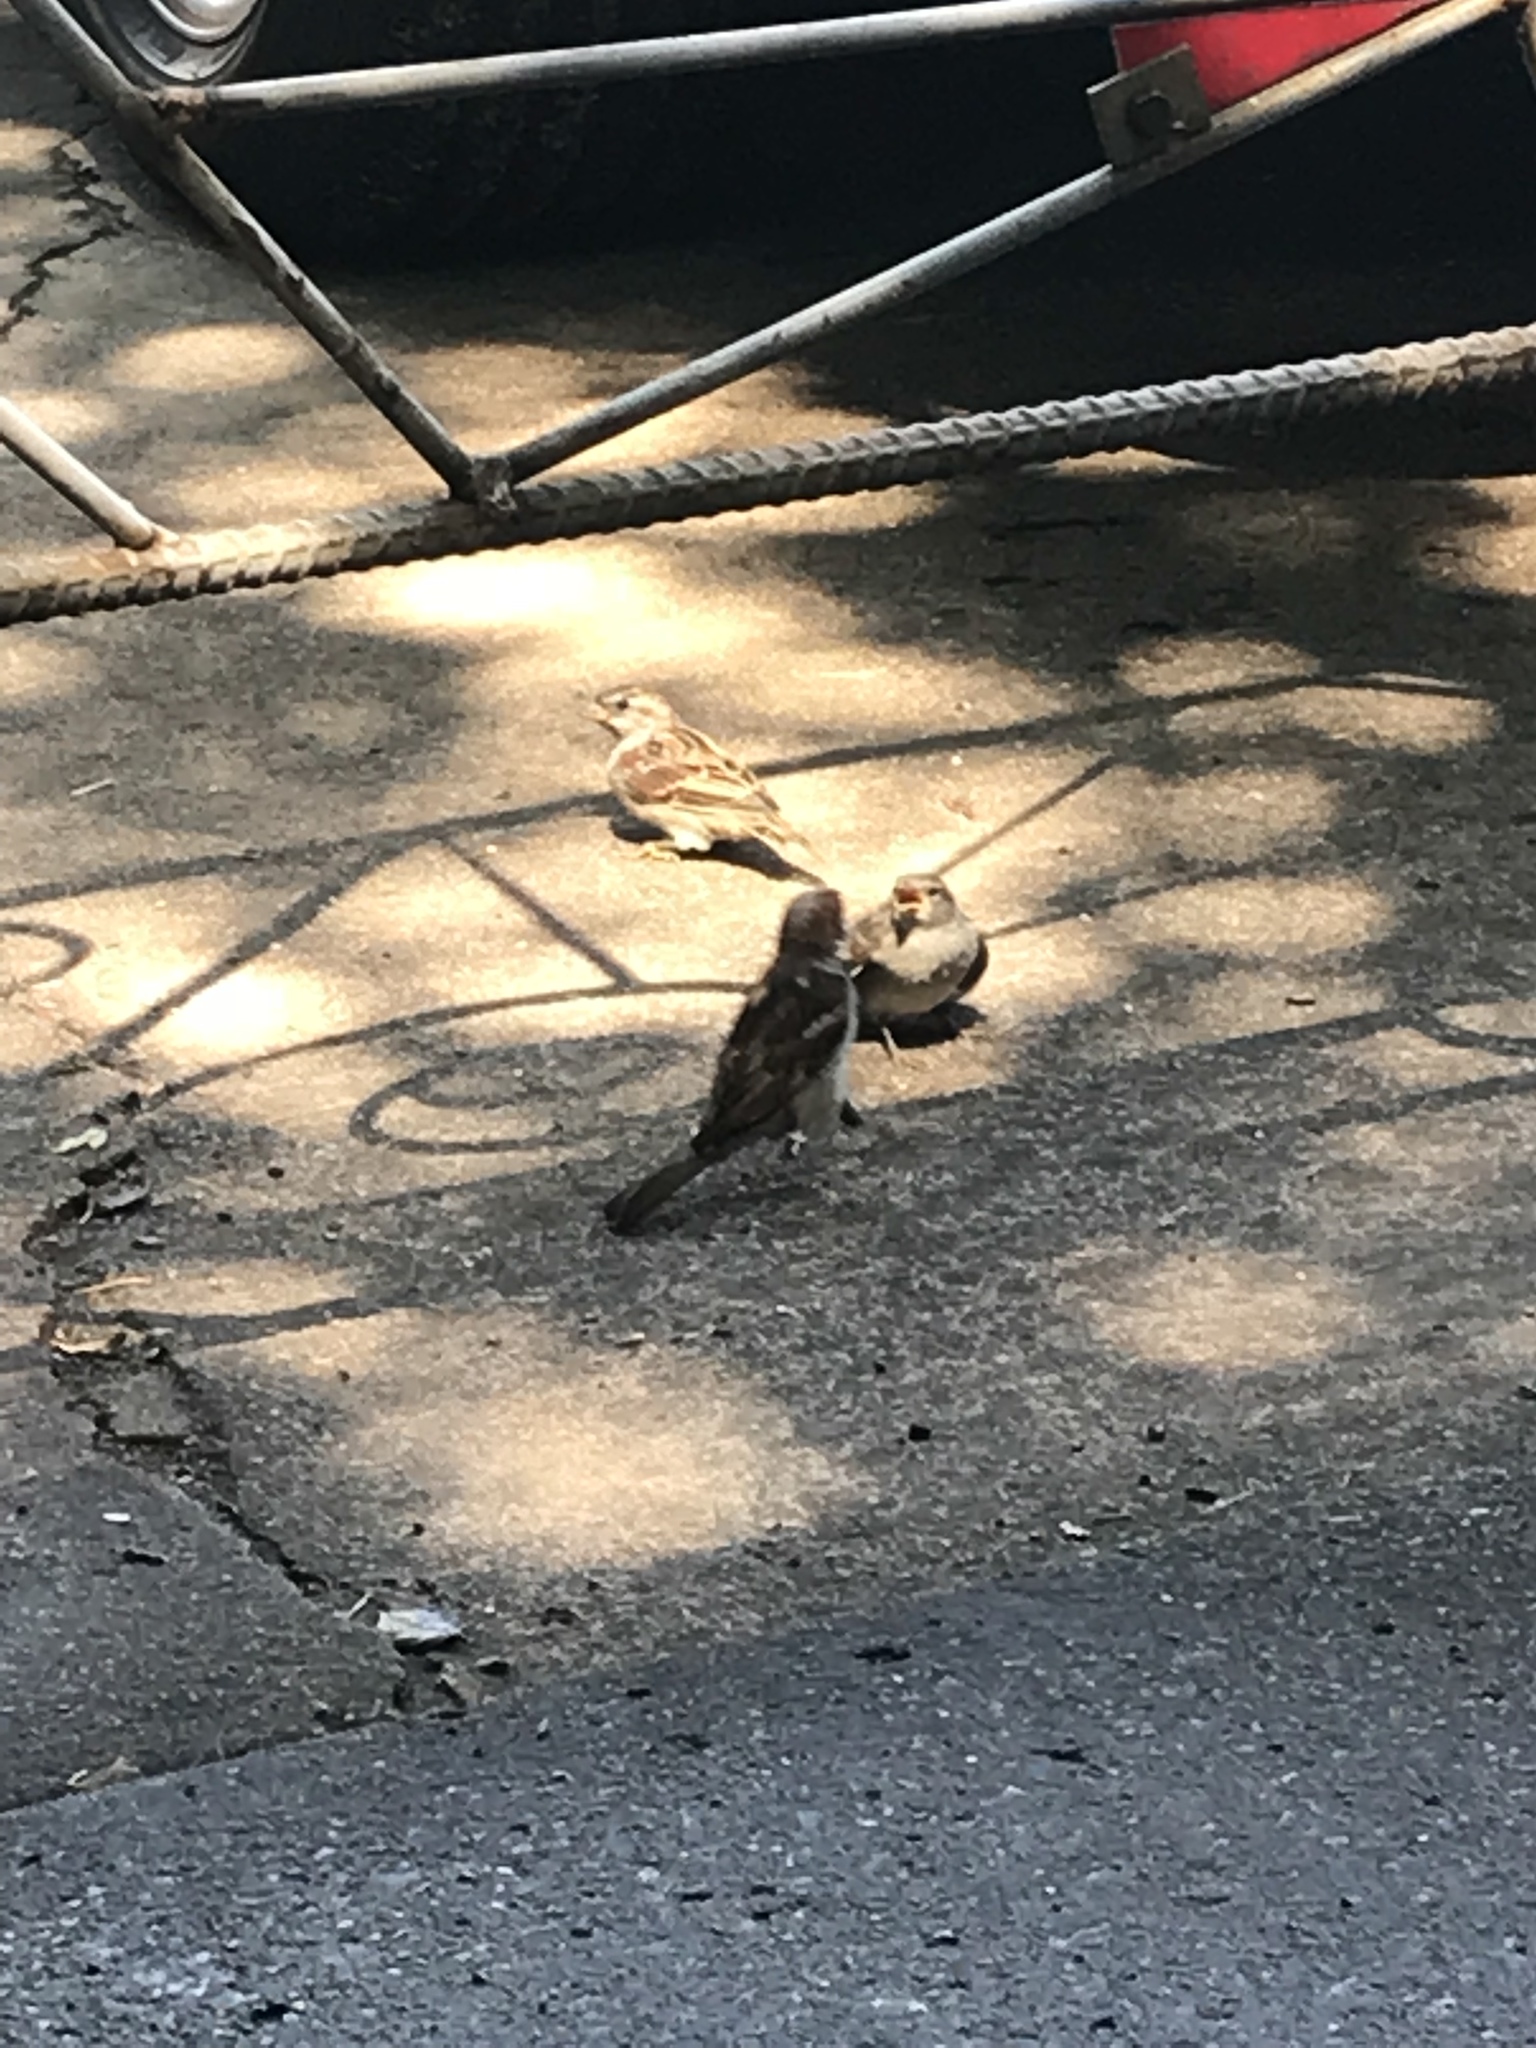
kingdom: Animalia
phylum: Chordata
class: Aves
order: Passeriformes
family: Passeridae
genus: Passer
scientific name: Passer domesticus
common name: House sparrow
